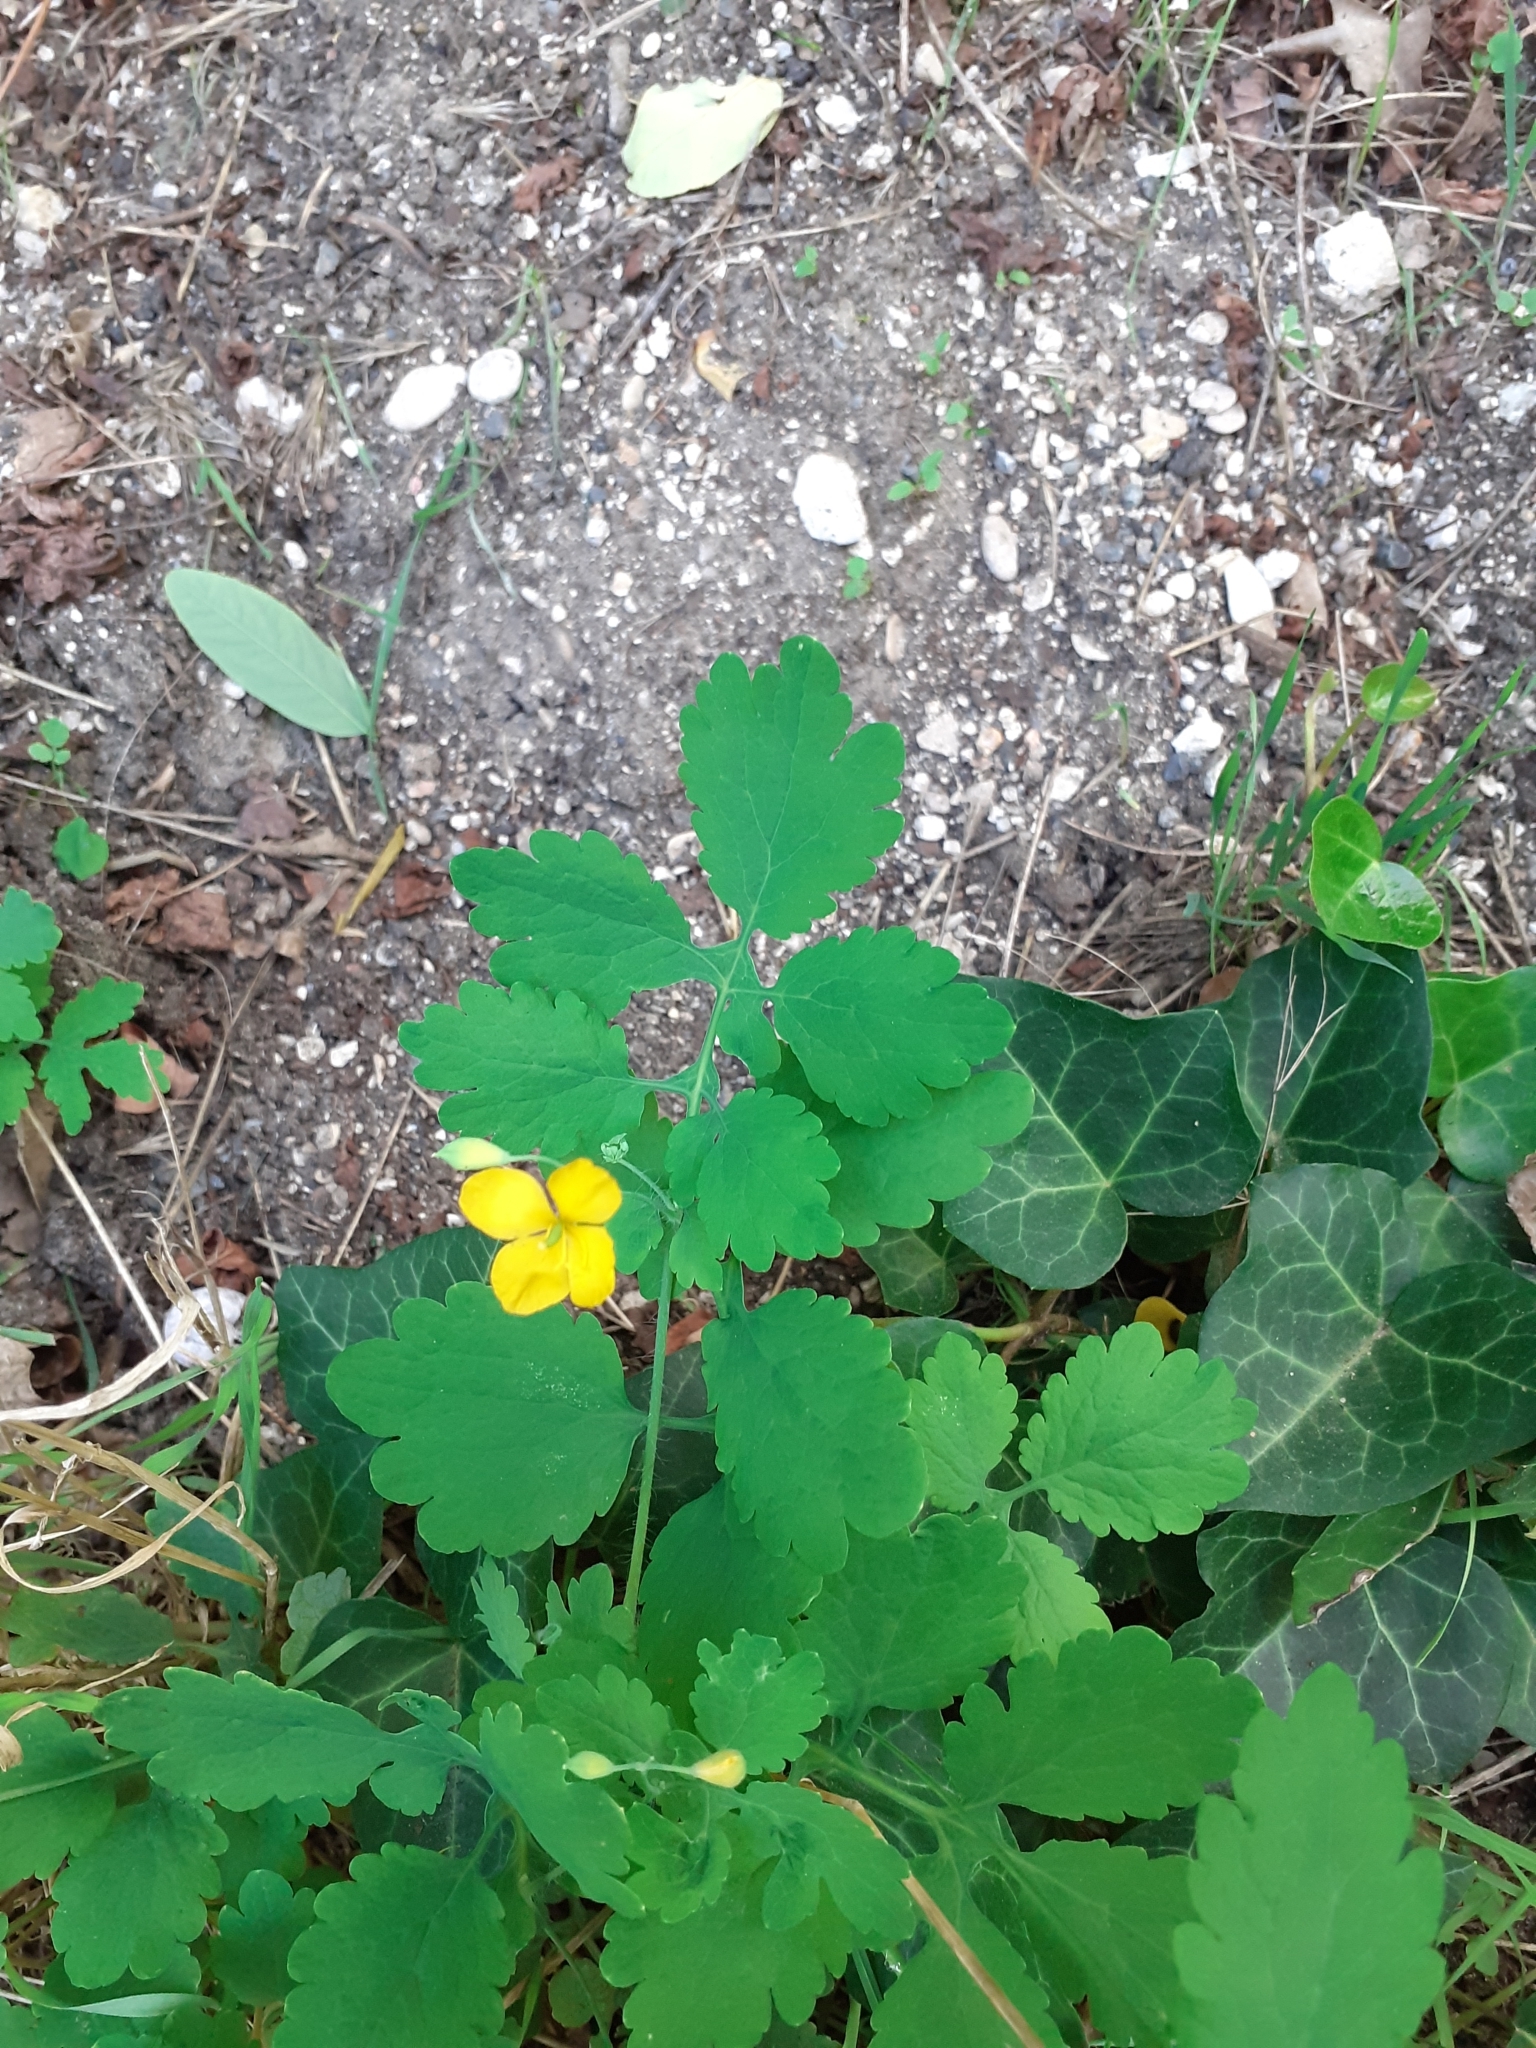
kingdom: Plantae
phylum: Tracheophyta
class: Magnoliopsida
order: Ranunculales
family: Papaveraceae
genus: Chelidonium
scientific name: Chelidonium majus
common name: Greater celandine
